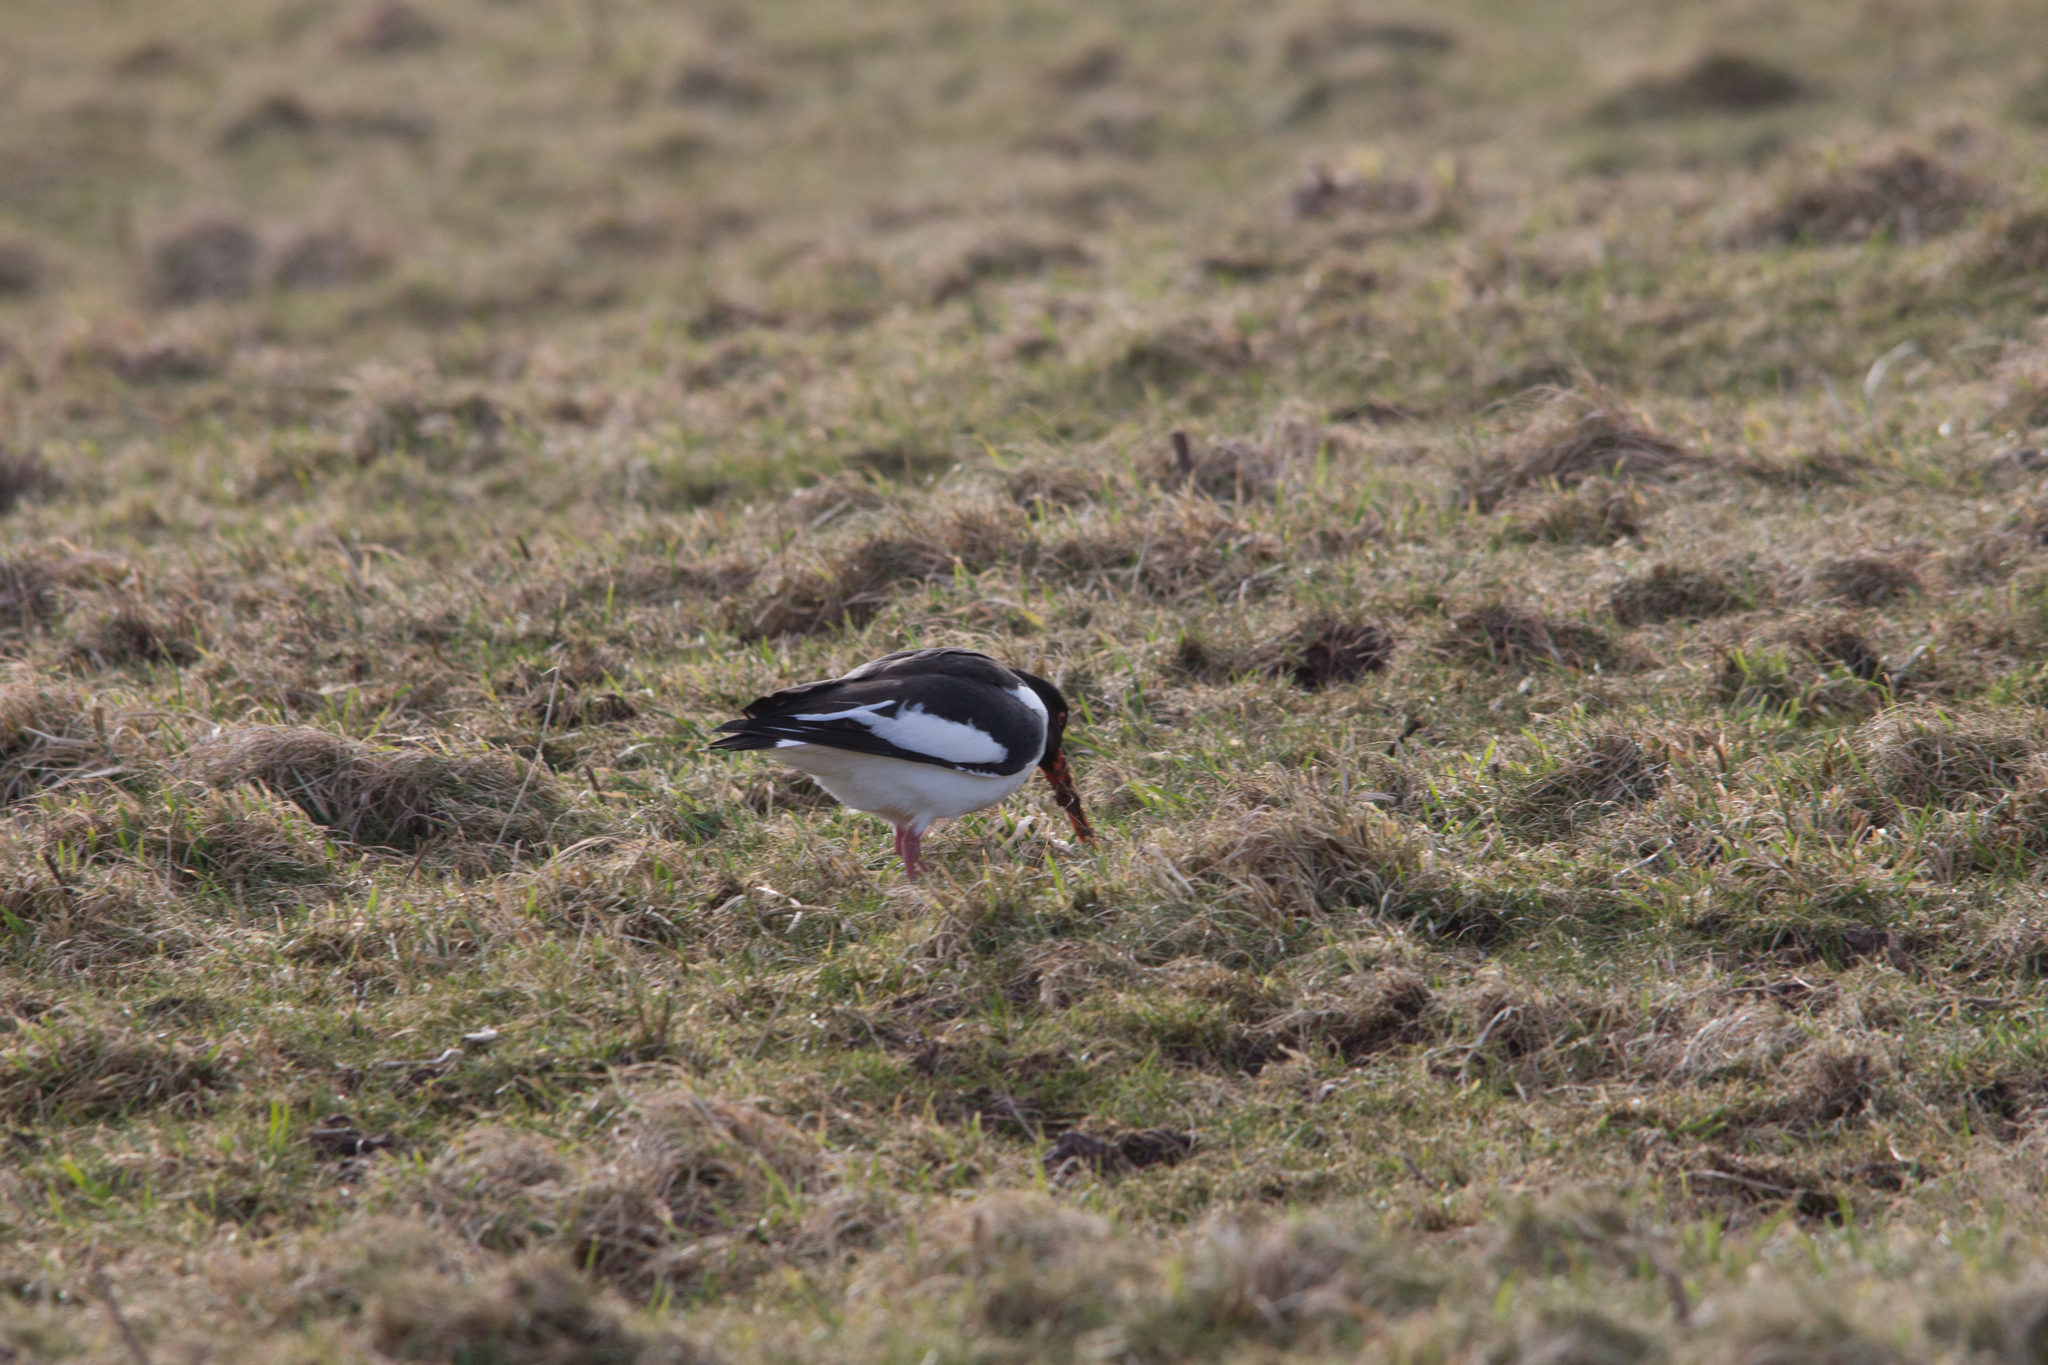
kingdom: Animalia
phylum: Chordata
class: Aves
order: Charadriiformes
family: Haematopodidae
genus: Haematopus
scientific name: Haematopus ostralegus
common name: Eurasian oystercatcher
